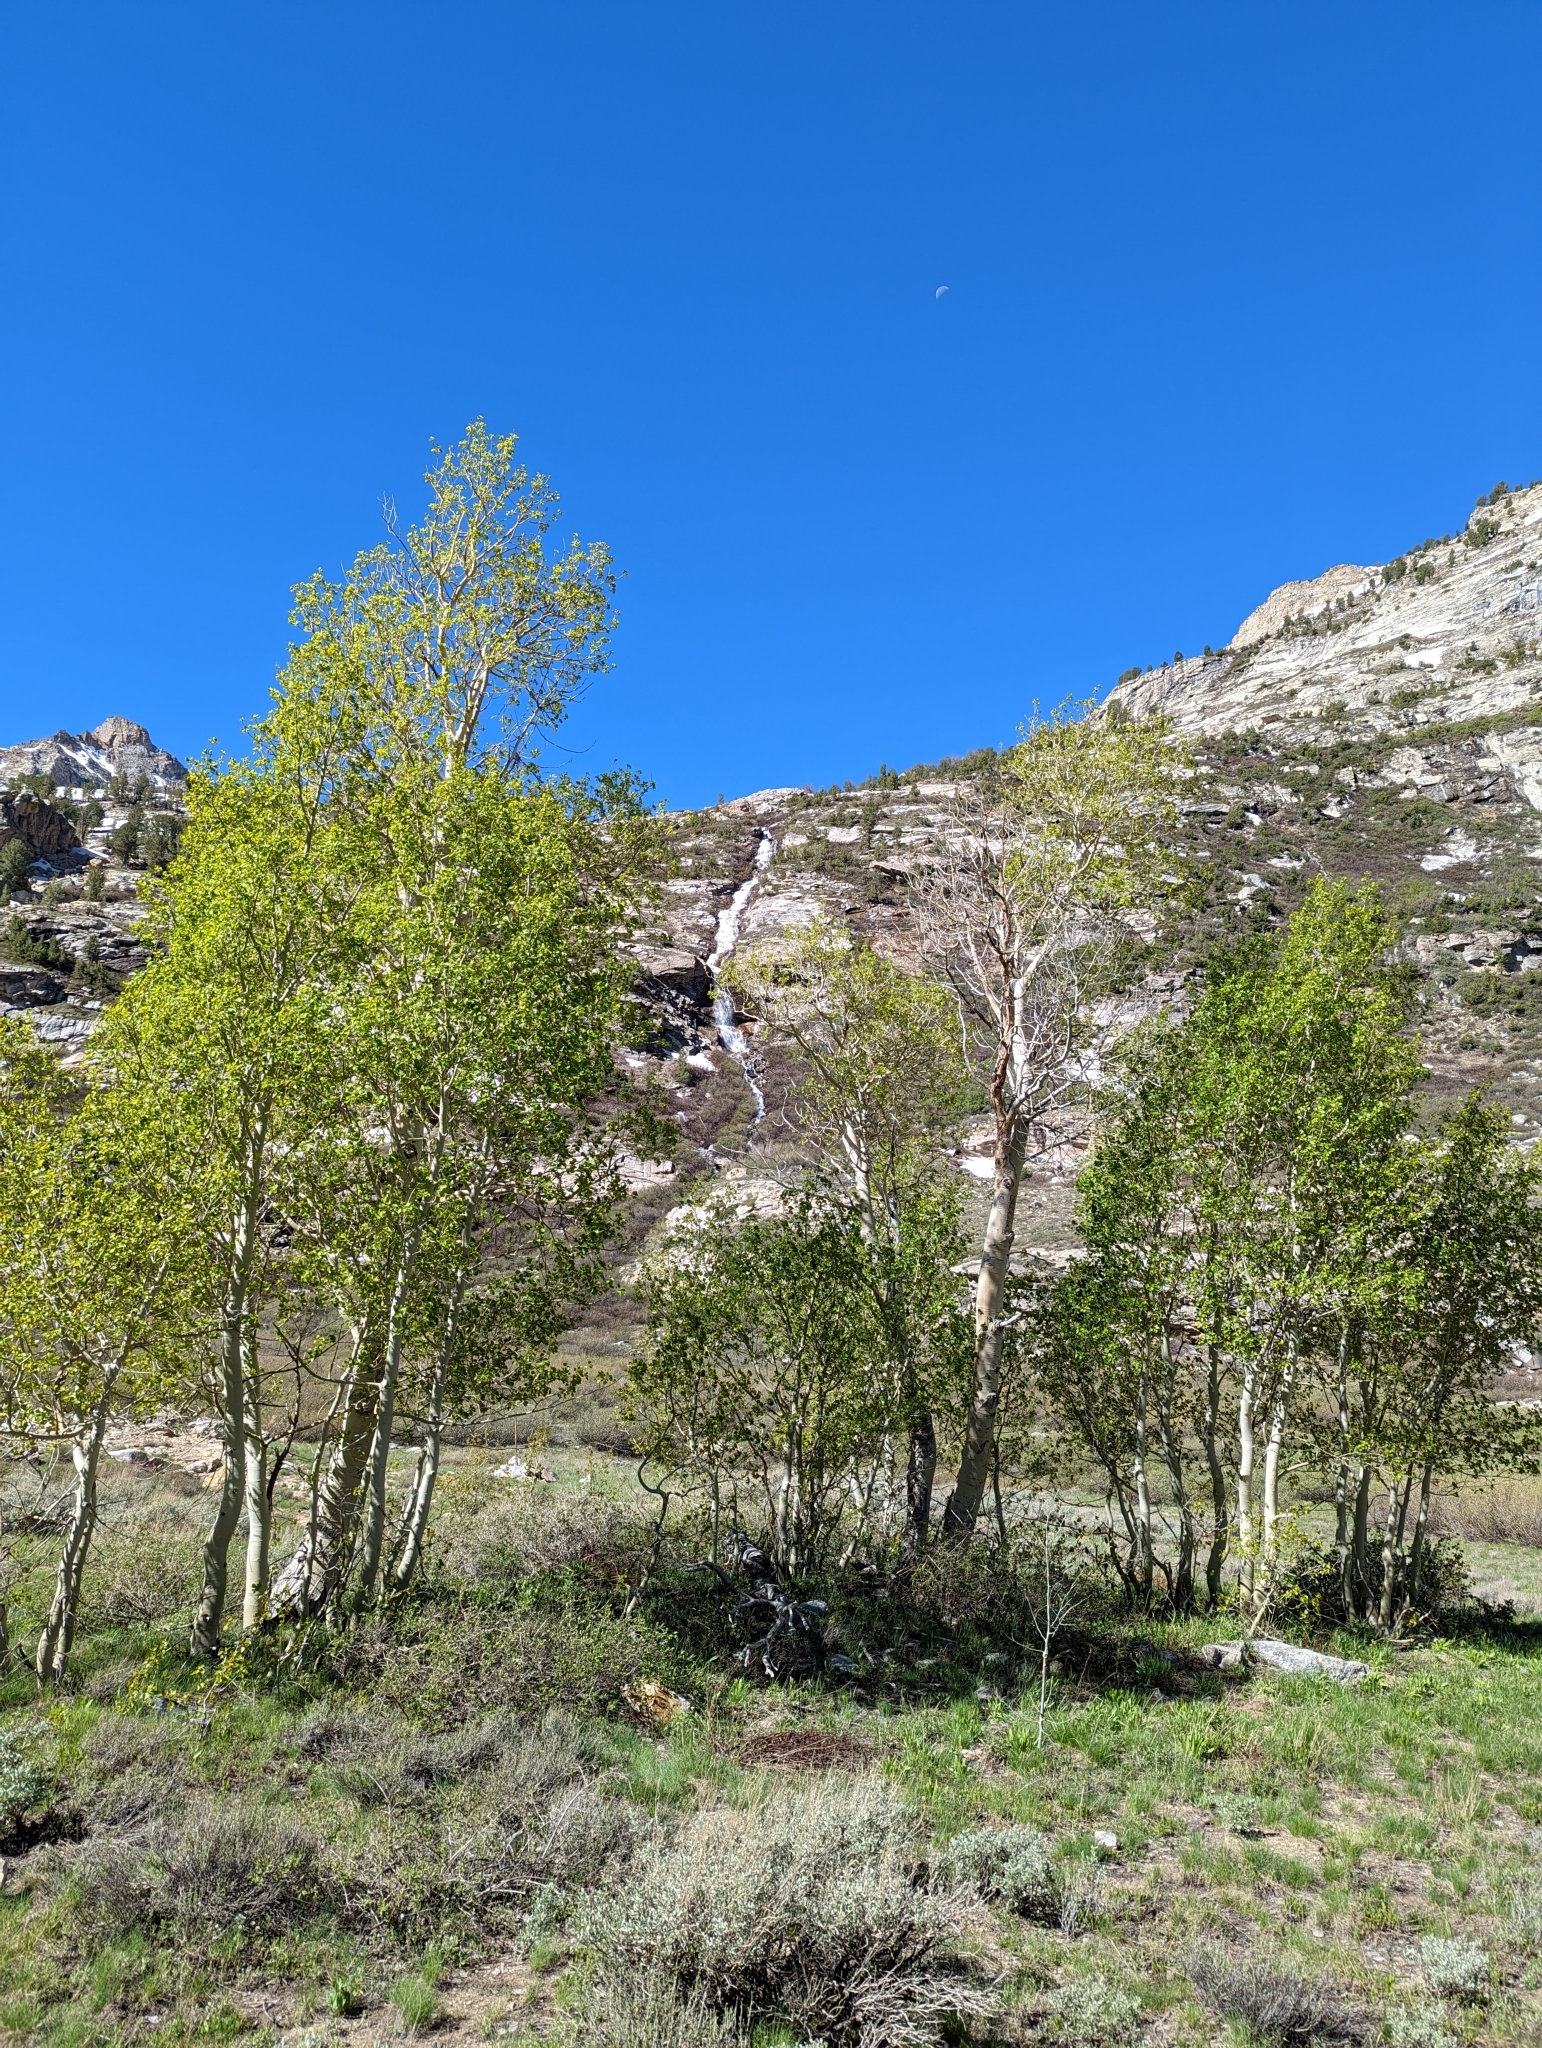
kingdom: Plantae
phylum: Tracheophyta
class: Magnoliopsida
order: Malpighiales
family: Salicaceae
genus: Populus
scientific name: Populus tremuloides
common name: Quaking aspen
